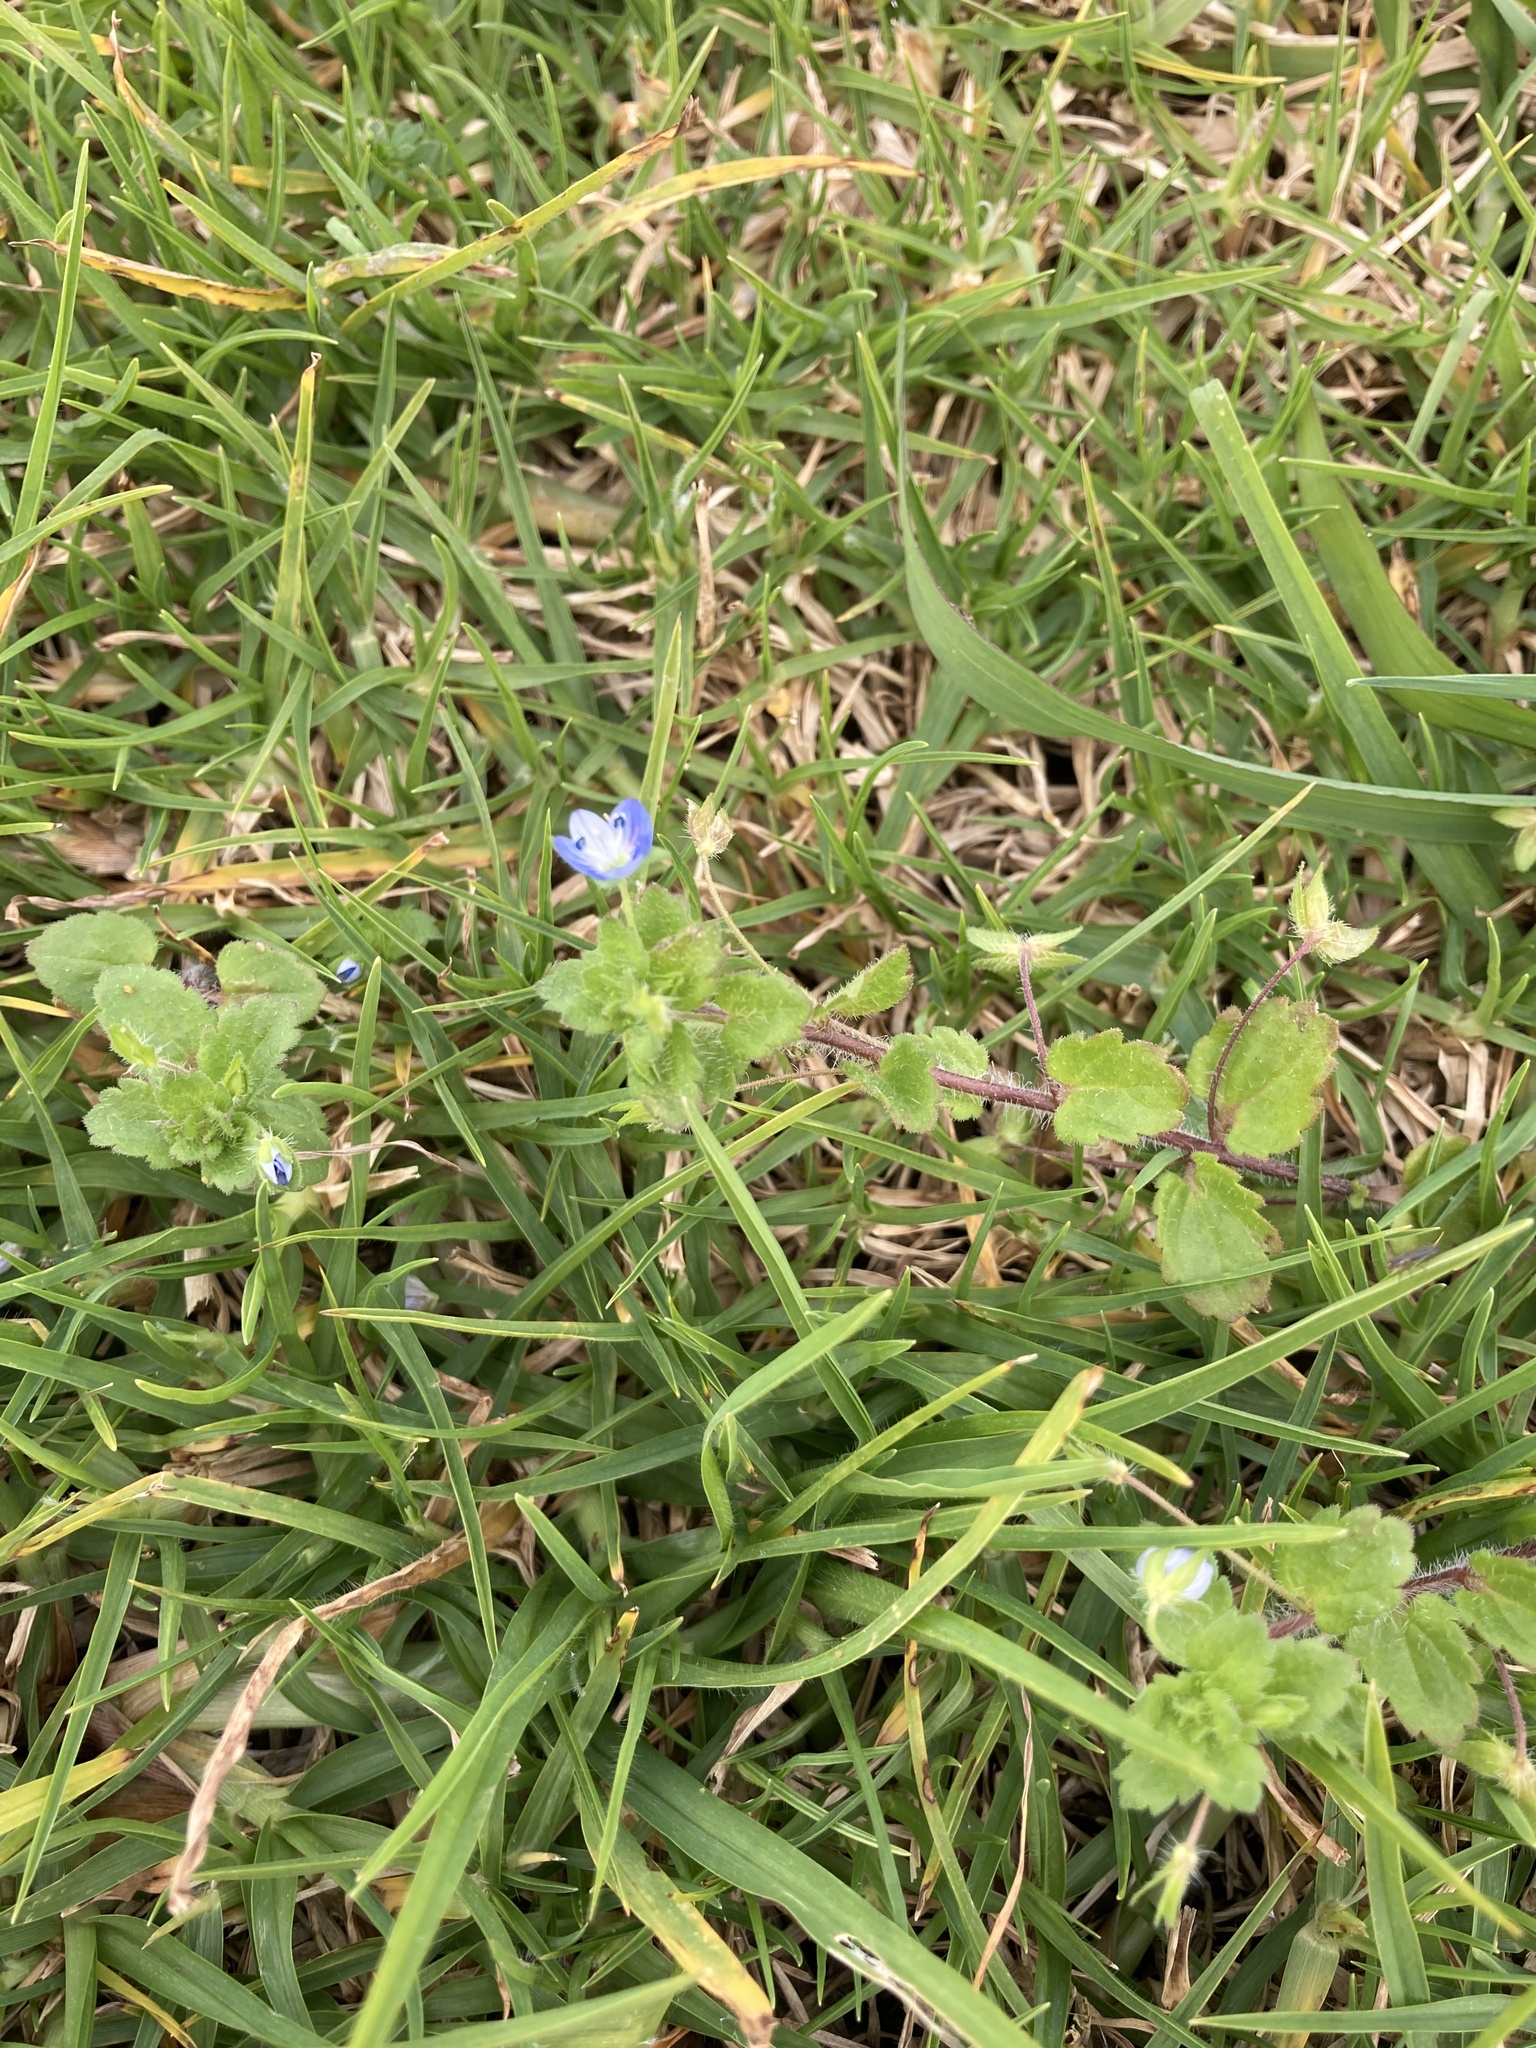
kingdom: Plantae
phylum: Tracheophyta
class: Magnoliopsida
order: Lamiales
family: Plantaginaceae
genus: Veronica
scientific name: Veronica persica
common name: Common field-speedwell
